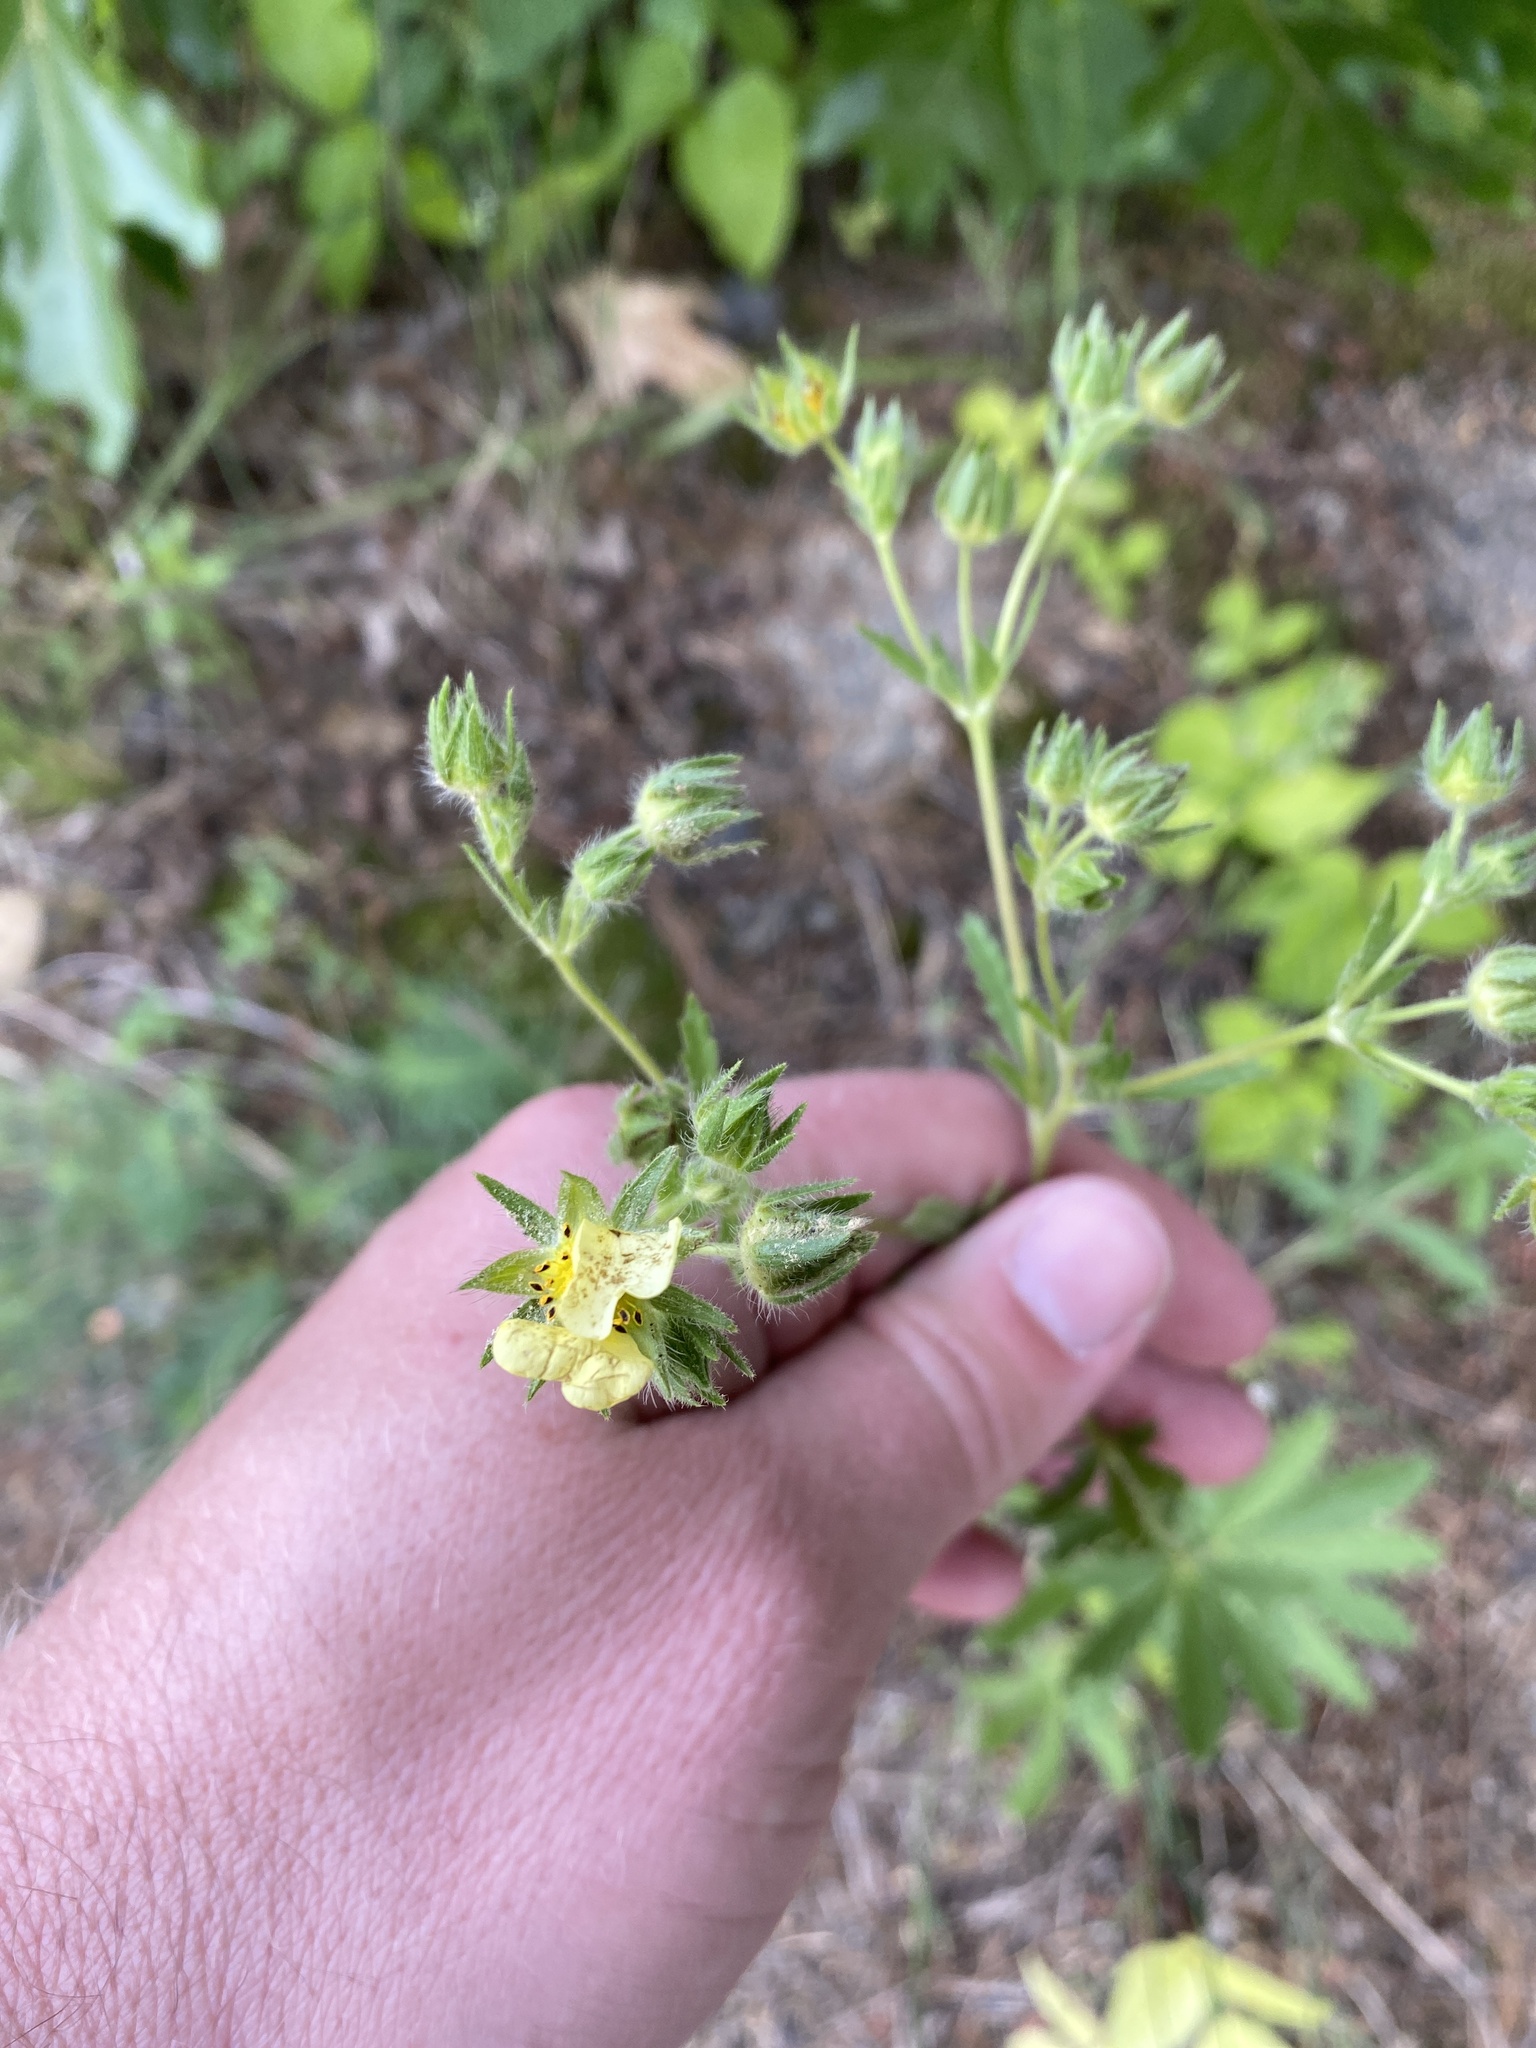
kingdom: Plantae
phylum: Tracheophyta
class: Magnoliopsida
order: Rosales
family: Rosaceae
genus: Potentilla
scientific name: Potentilla recta
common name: Sulphur cinquefoil
